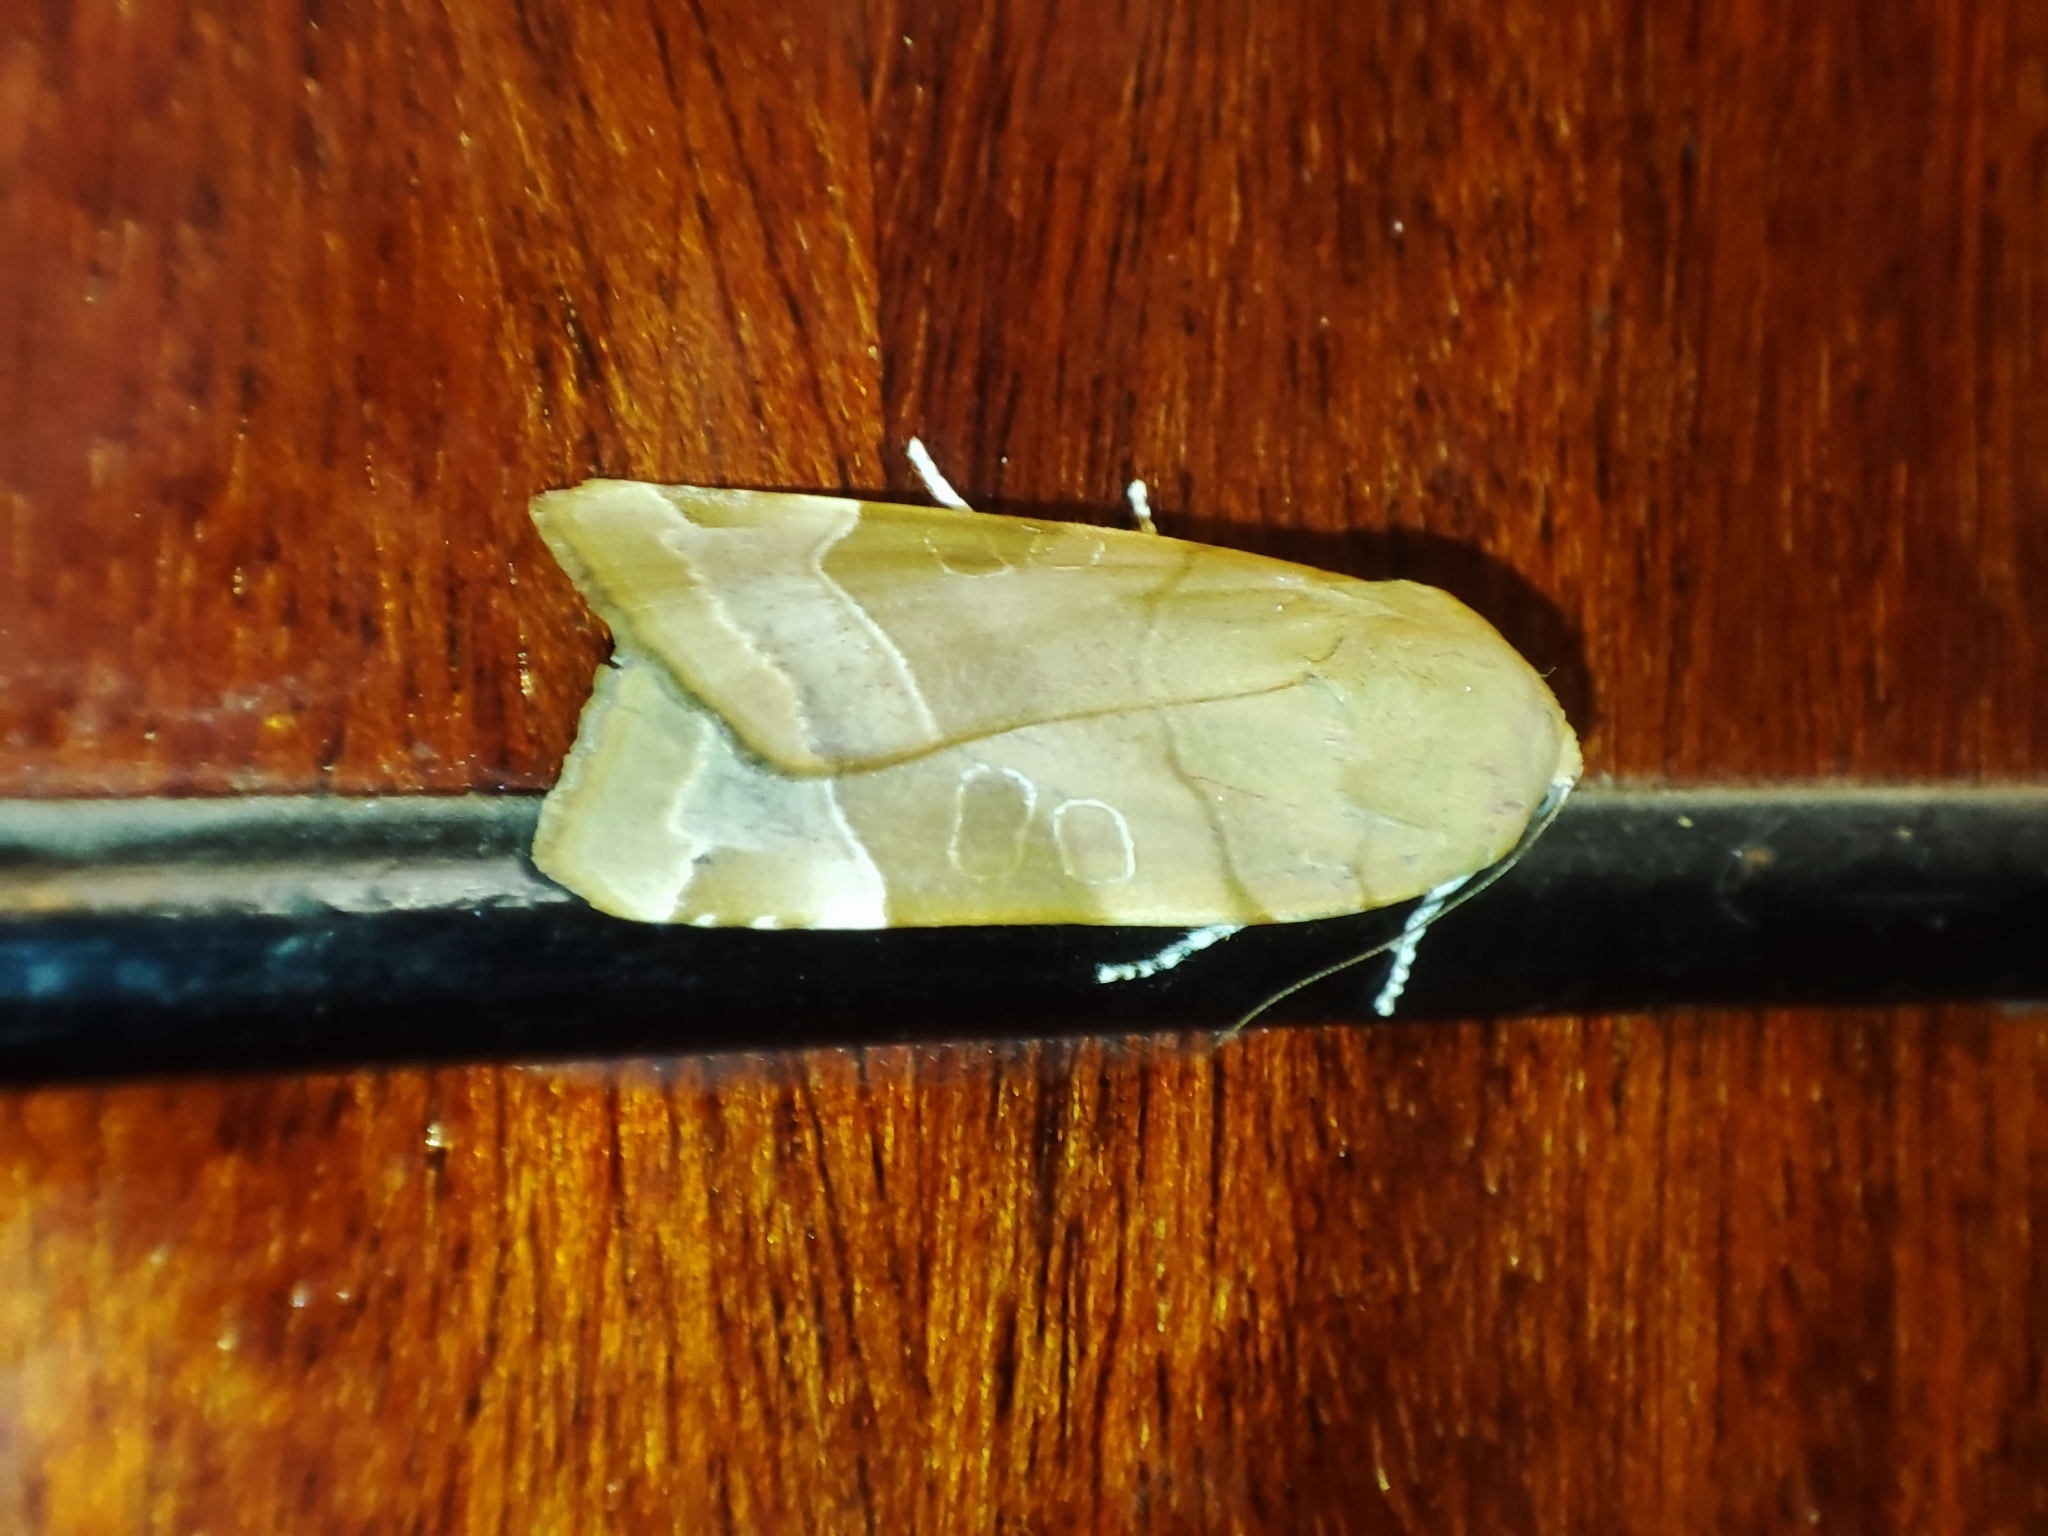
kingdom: Animalia
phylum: Arthropoda
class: Insecta
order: Lepidoptera
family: Noctuidae
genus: Noctua
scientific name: Noctua fimbriata
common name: Broad-bordered yellow underwing
